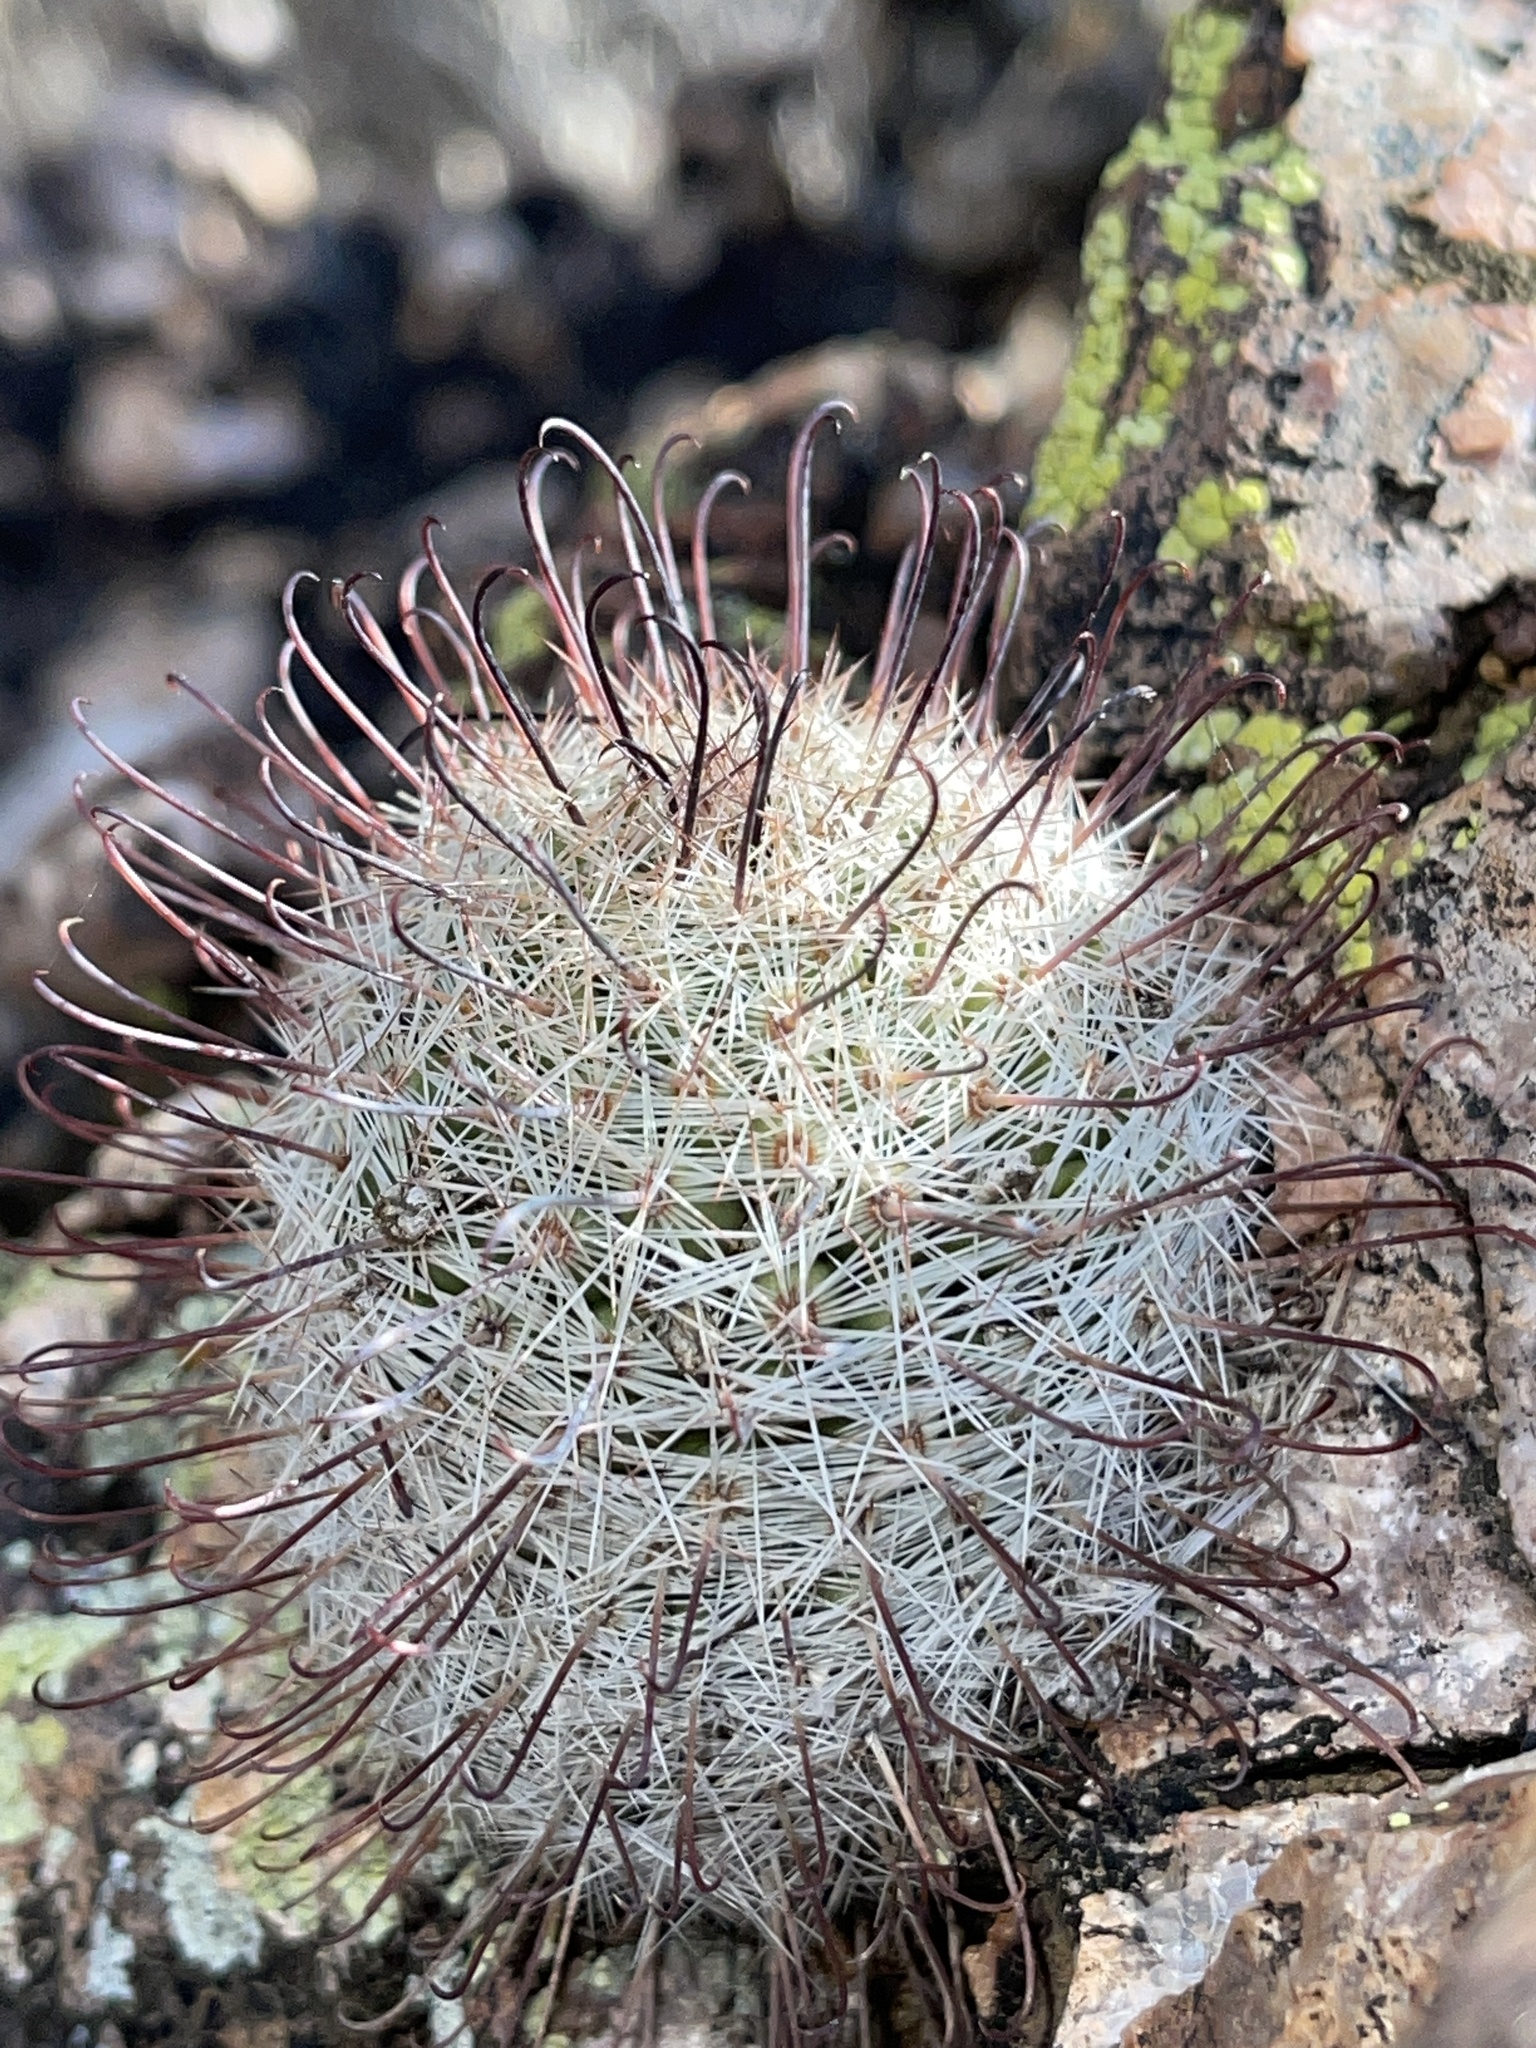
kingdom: Plantae
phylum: Tracheophyta
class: Magnoliopsida
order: Caryophyllales
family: Cactaceae
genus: Cochemiea
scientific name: Cochemiea grahamii
